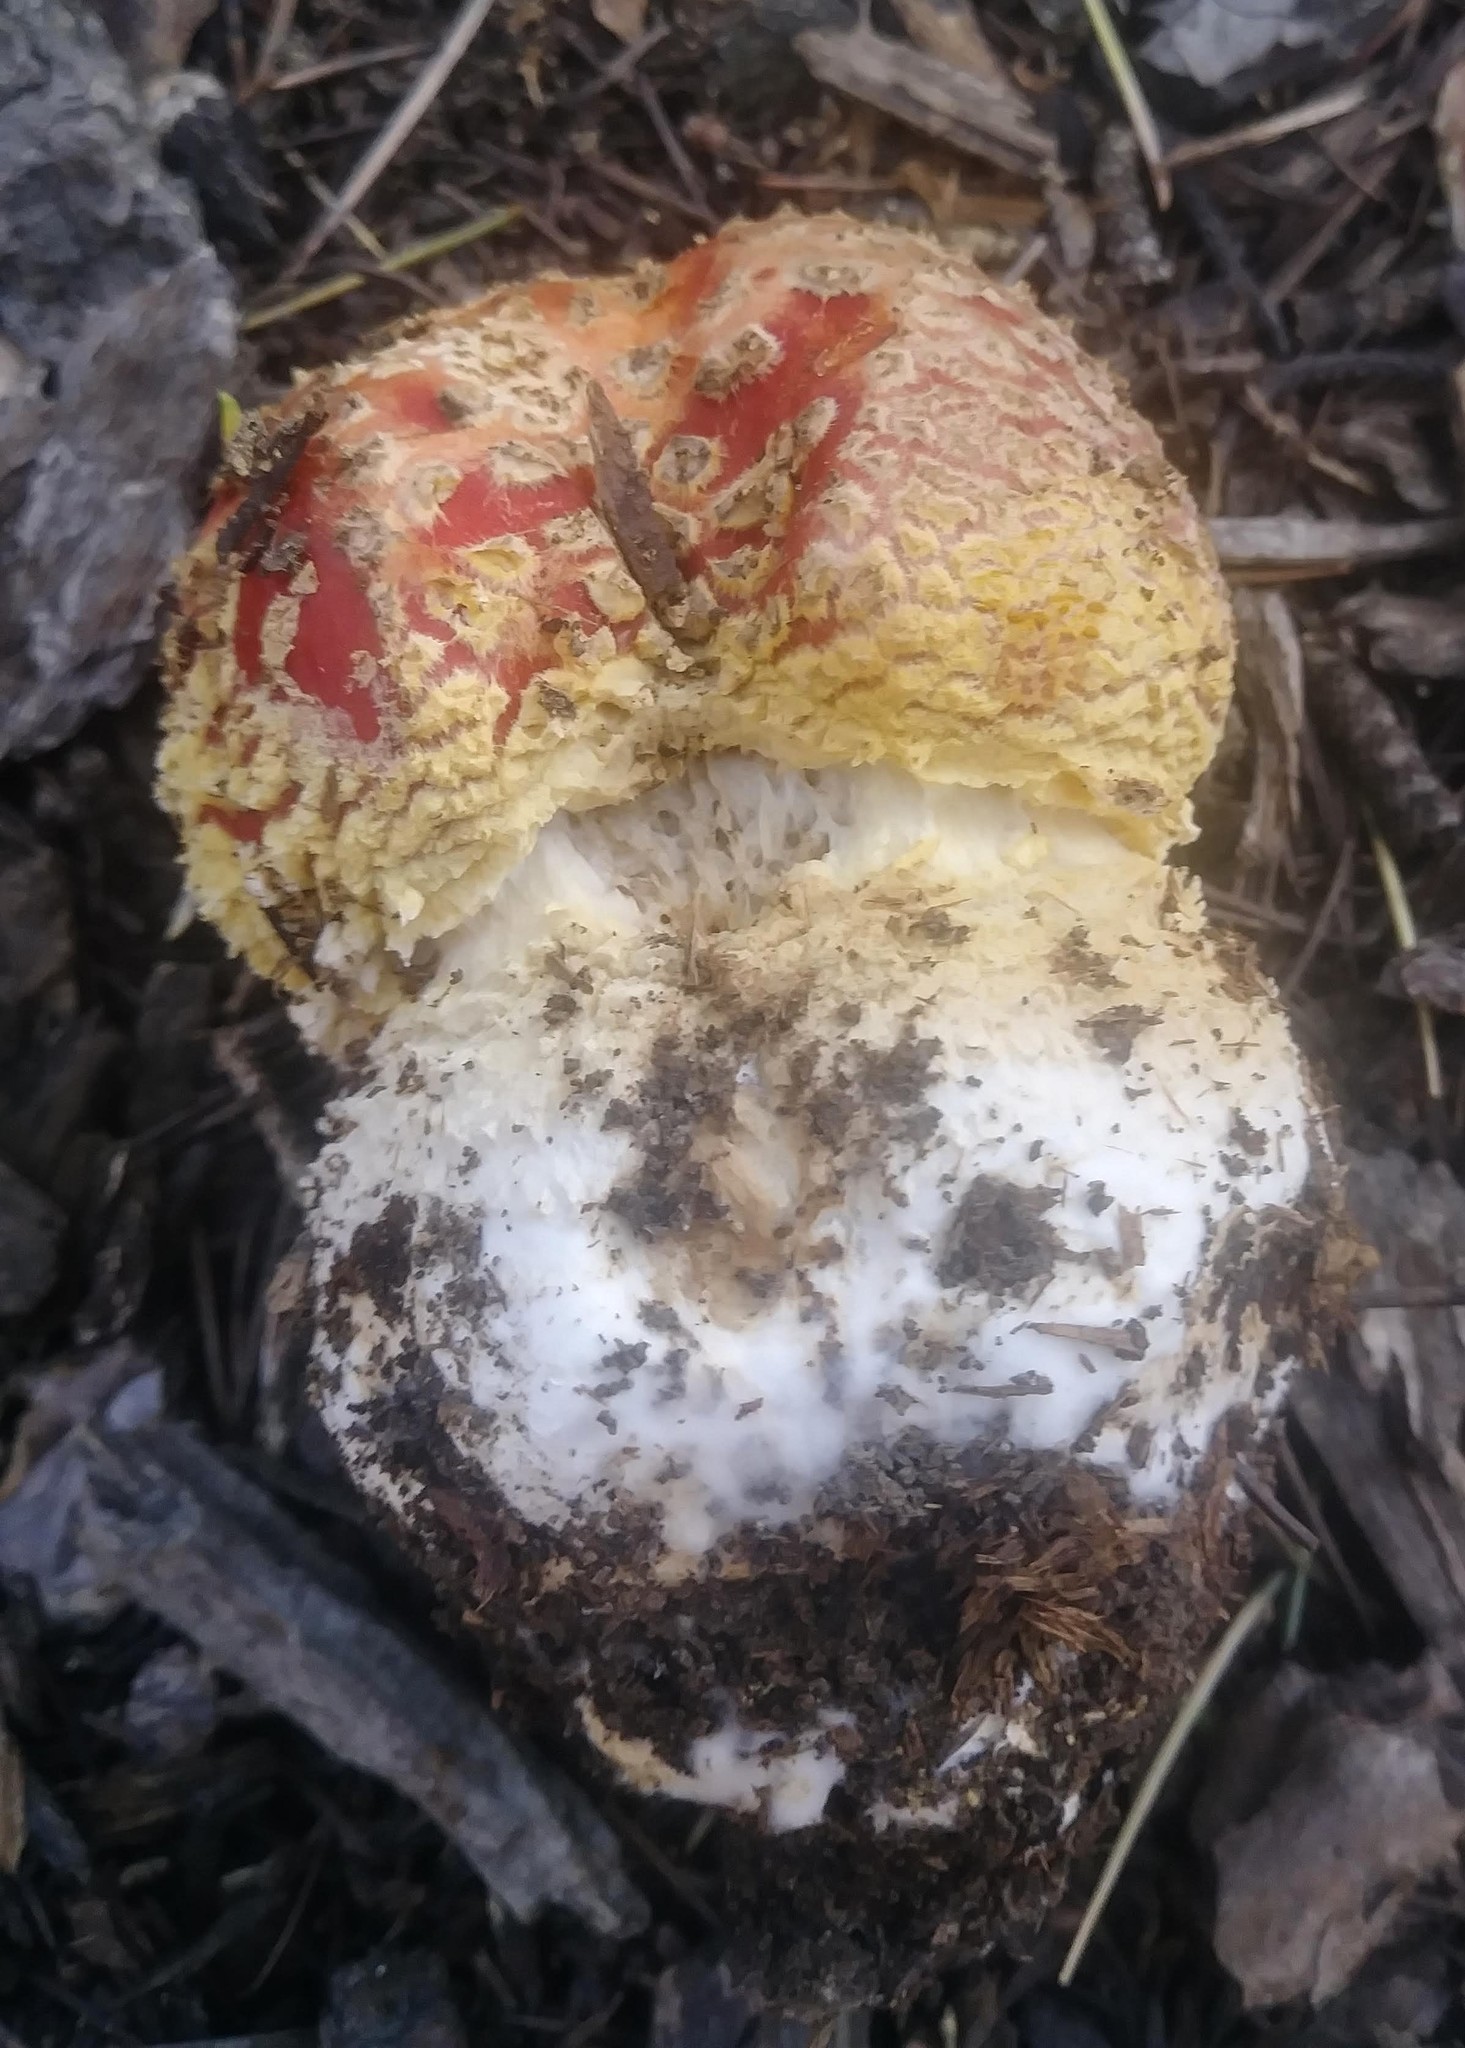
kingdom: Fungi
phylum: Basidiomycota
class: Agaricomycetes
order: Agaricales
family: Amanitaceae
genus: Amanita
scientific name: Amanita muscaria
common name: Fly agaric
